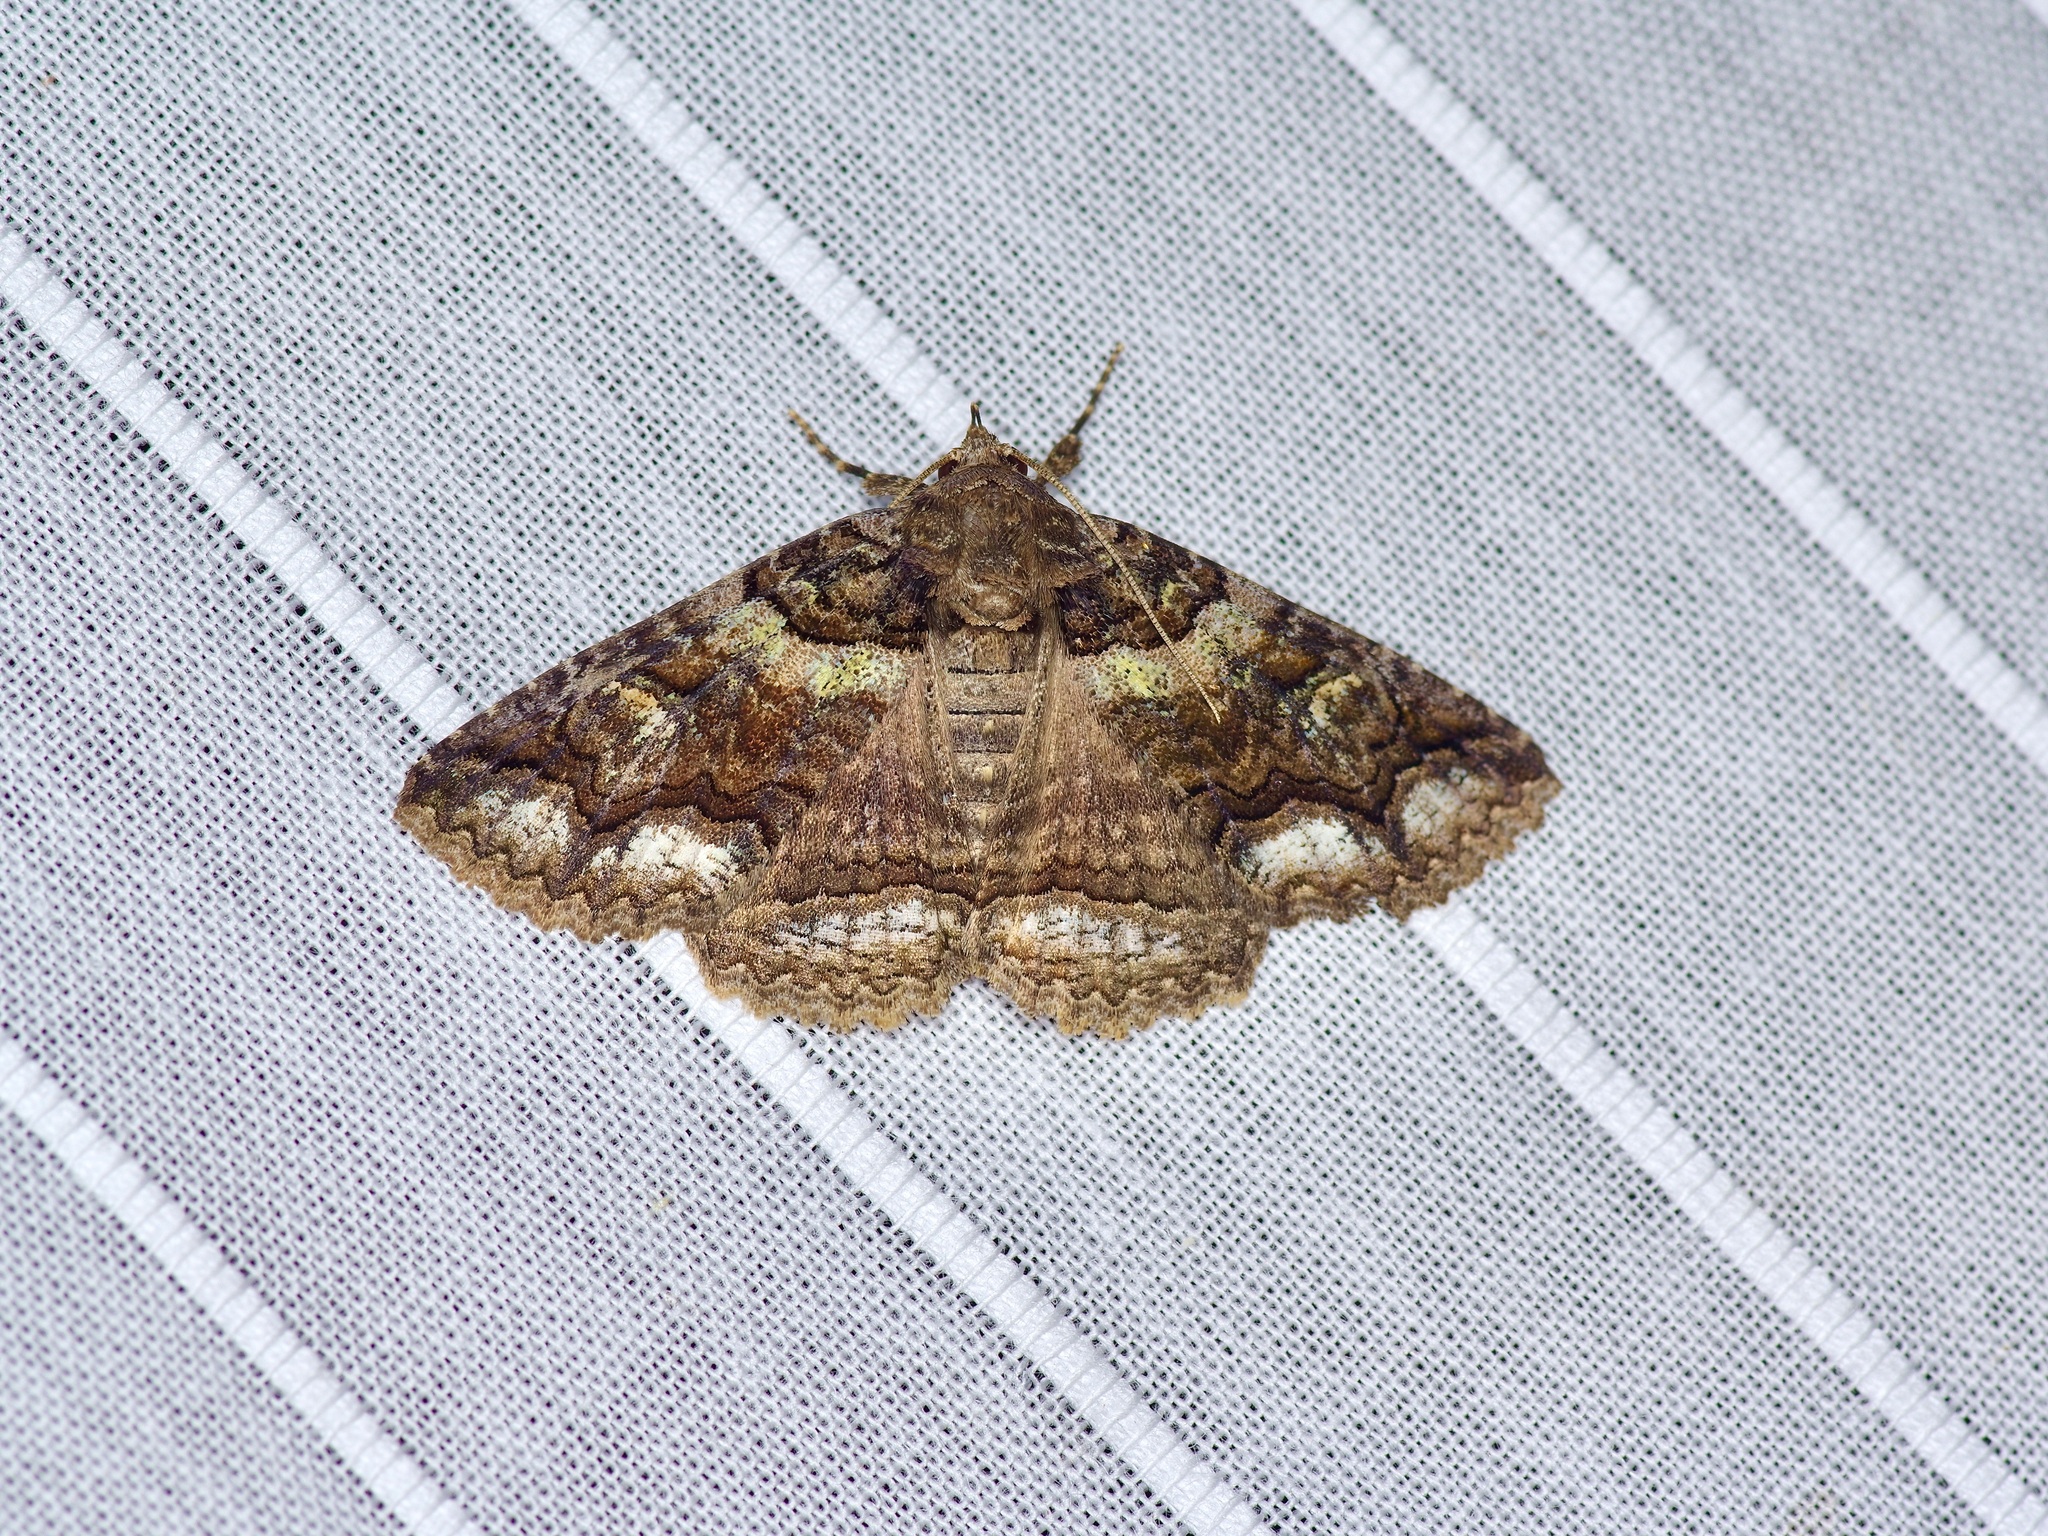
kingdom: Animalia
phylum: Arthropoda
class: Insecta
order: Lepidoptera
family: Erebidae
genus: Zale
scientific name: Zale edusina
